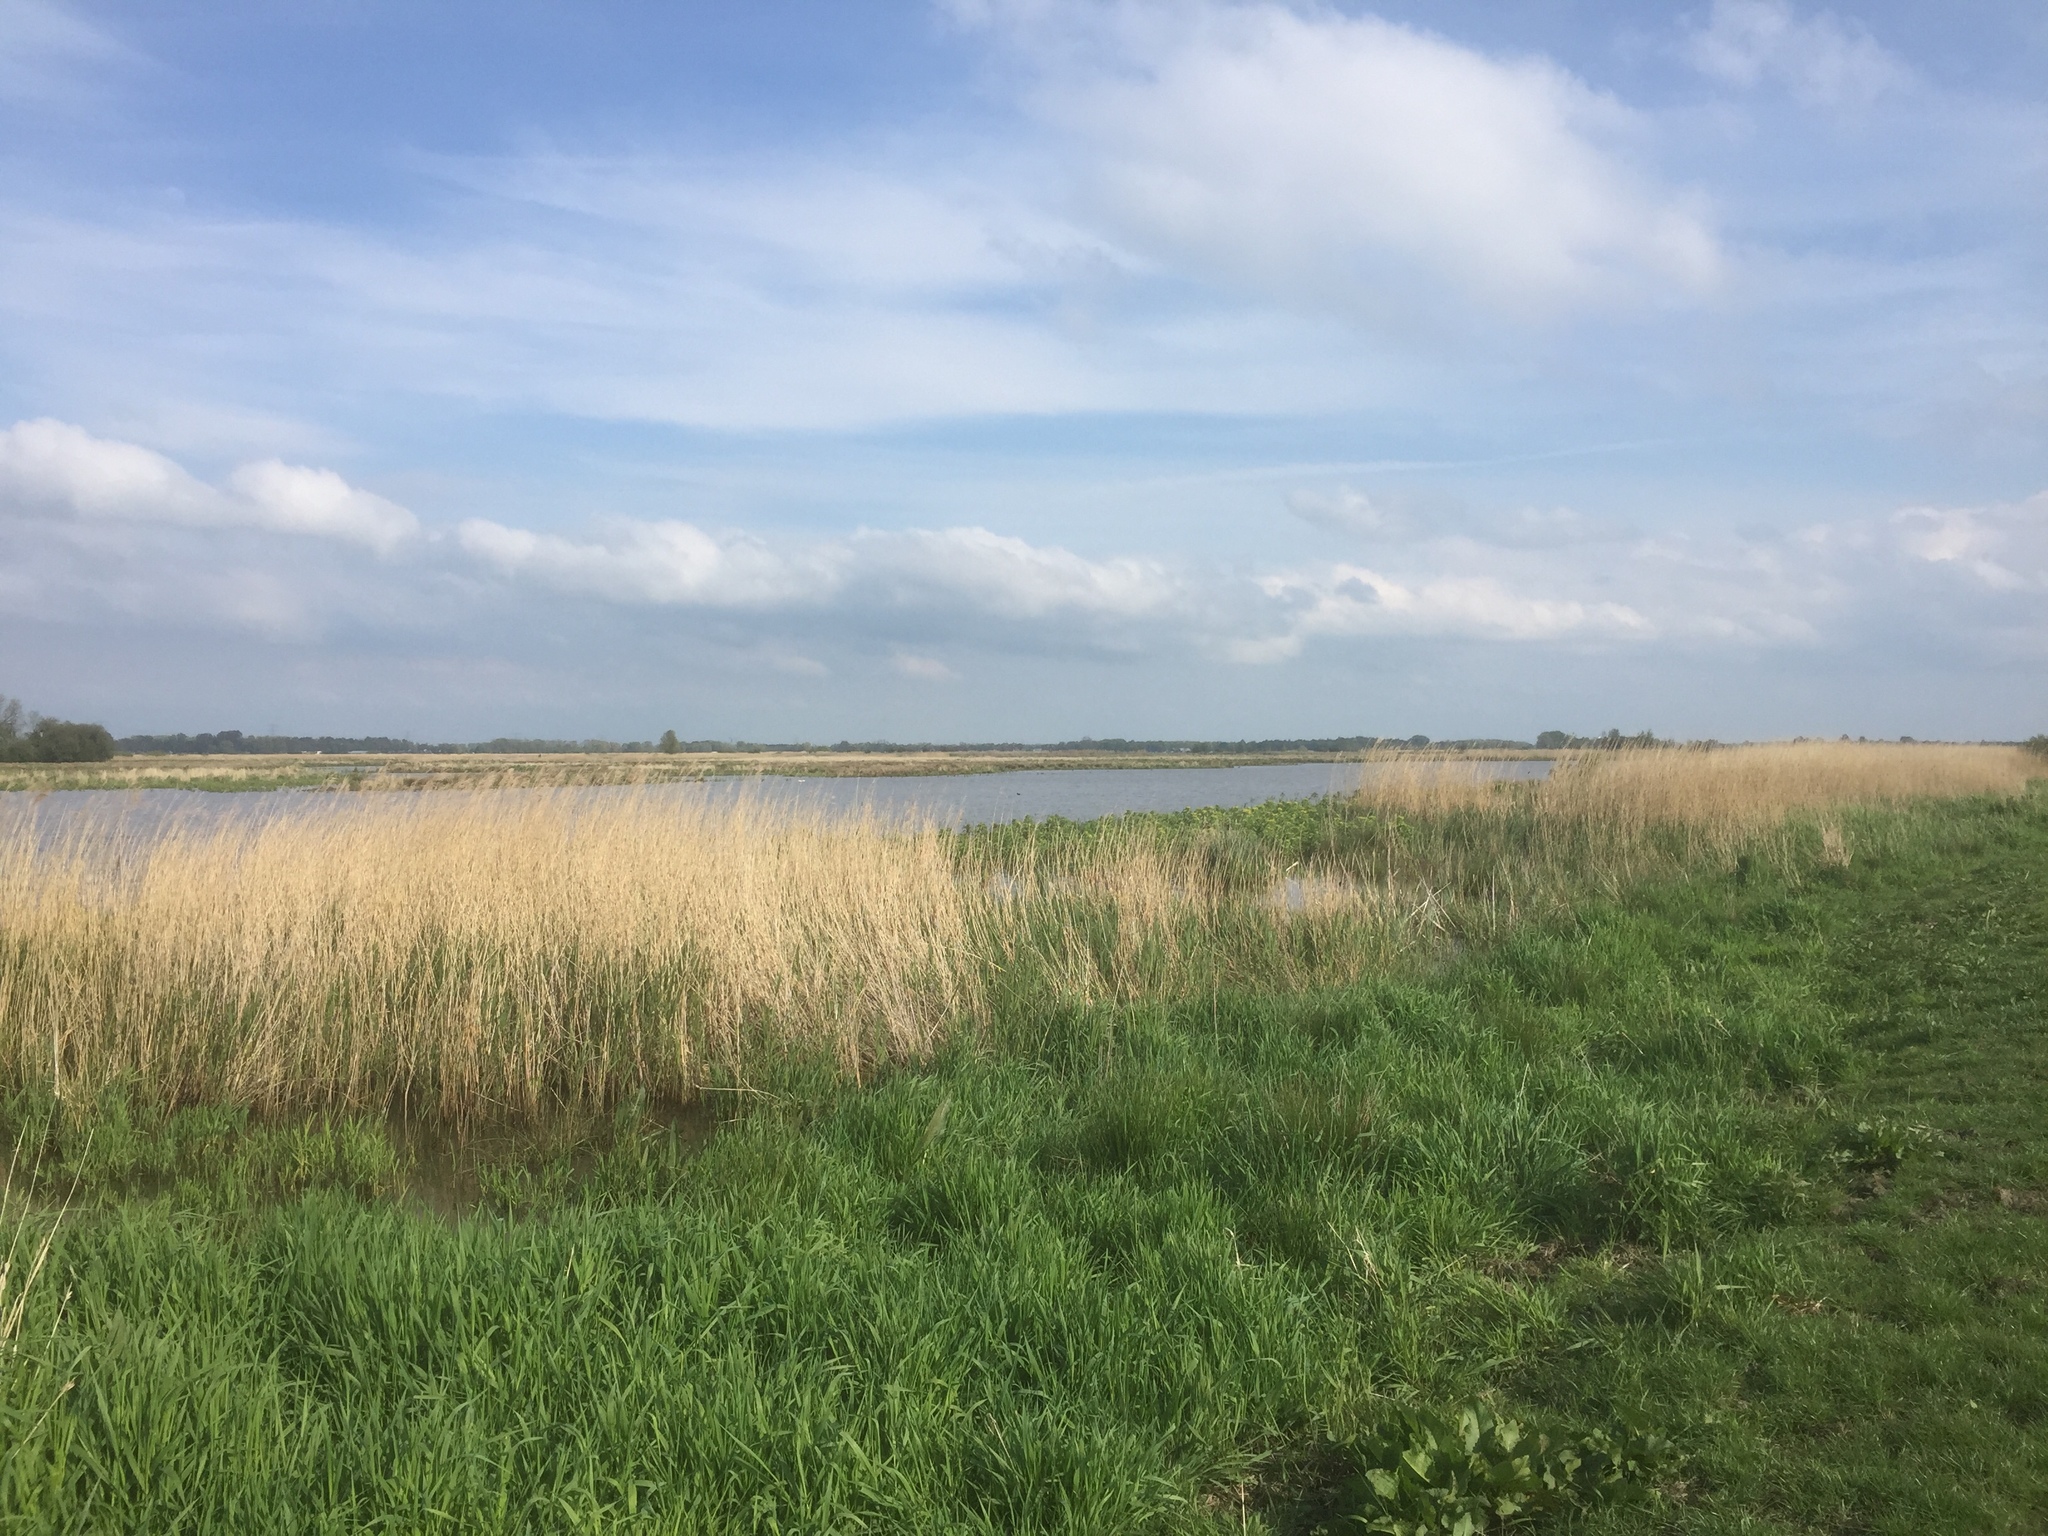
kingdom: Plantae
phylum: Tracheophyta
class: Liliopsida
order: Poales
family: Poaceae
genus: Phragmites
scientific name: Phragmites australis
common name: Common reed
